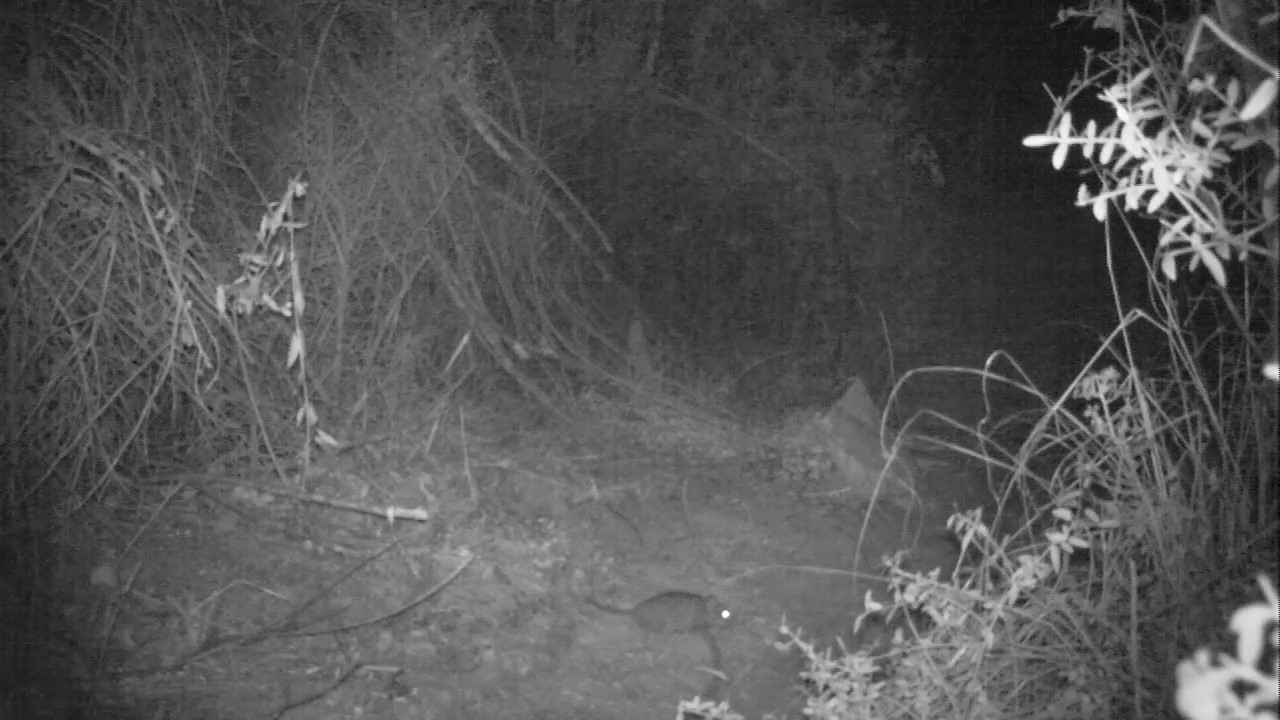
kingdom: Animalia
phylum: Chordata
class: Mammalia
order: Rodentia
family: Muridae
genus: Otomys
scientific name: Otomys irroratus
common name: Southern african vlei rat
